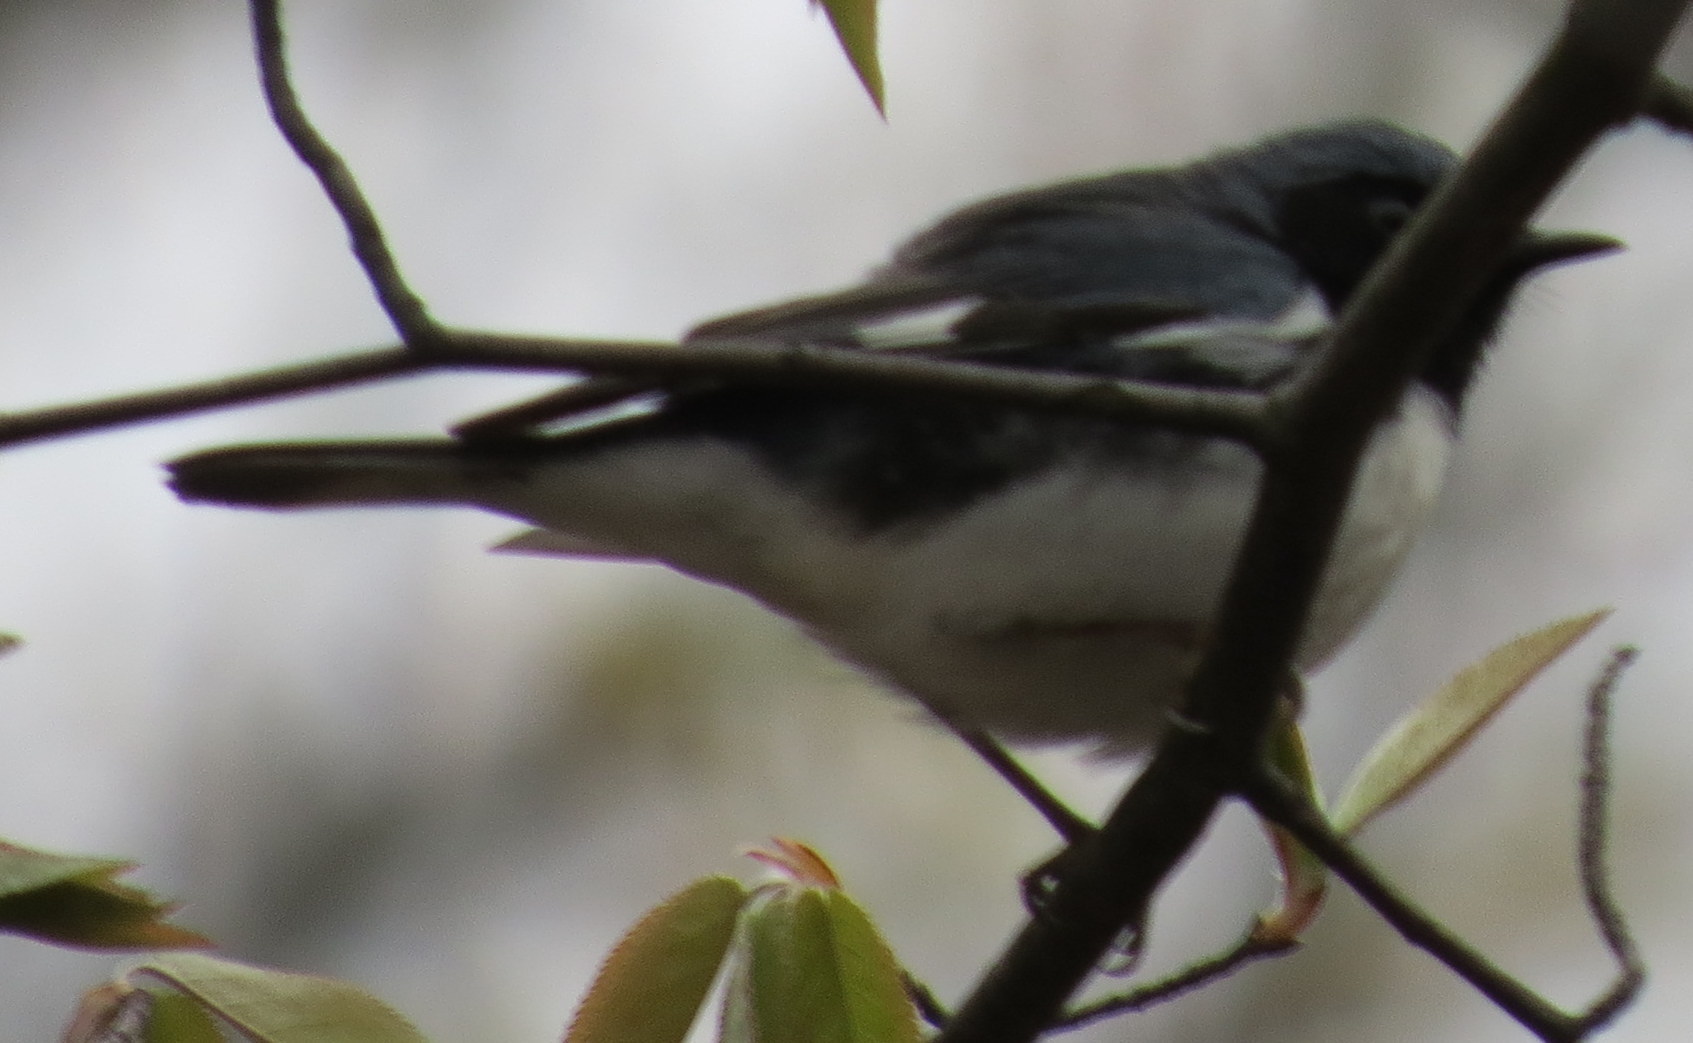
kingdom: Animalia
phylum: Chordata
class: Aves
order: Passeriformes
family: Parulidae
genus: Setophaga
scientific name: Setophaga caerulescens
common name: Black-throated blue warbler
